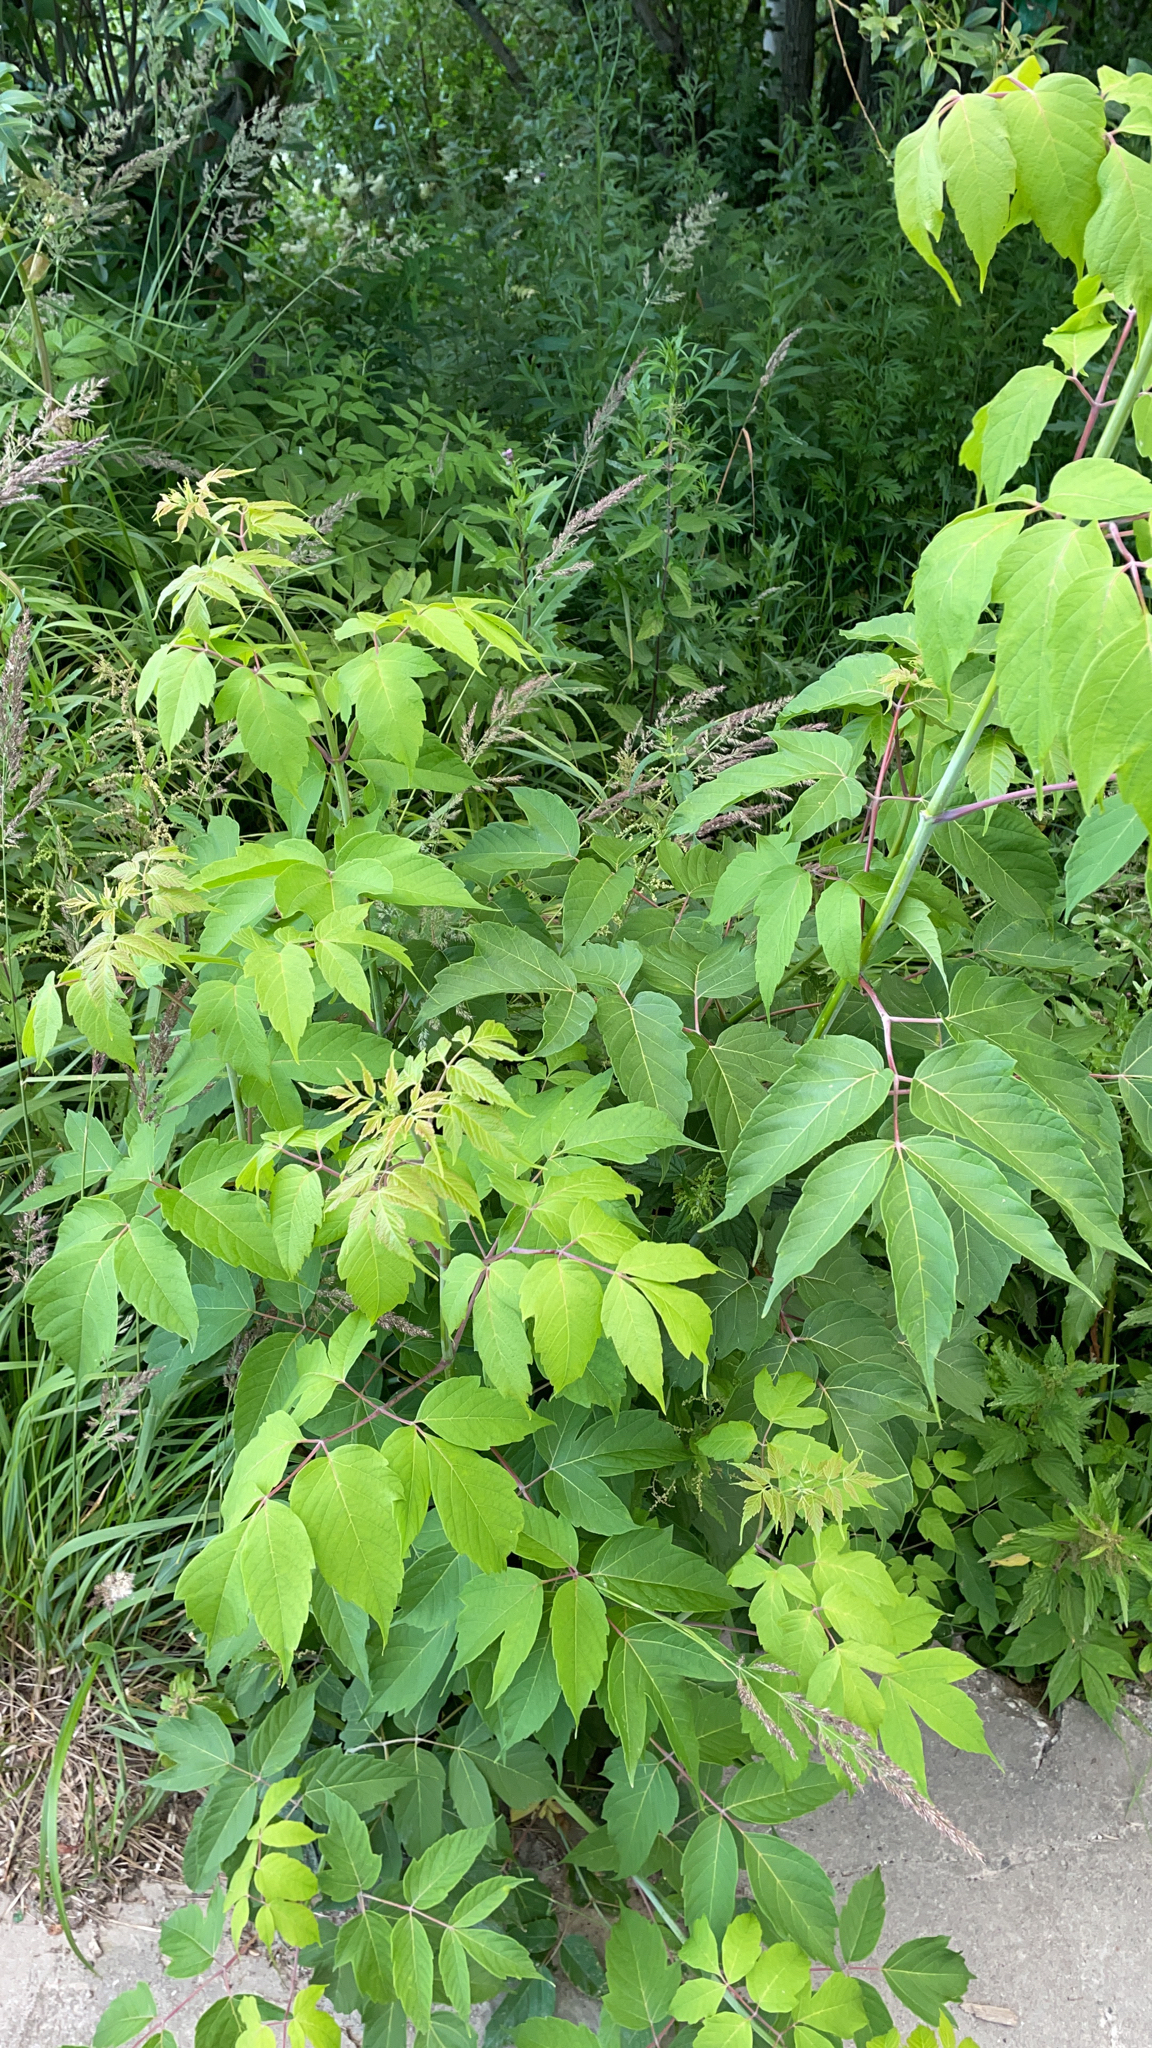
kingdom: Plantae
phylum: Tracheophyta
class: Magnoliopsida
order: Sapindales
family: Sapindaceae
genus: Acer
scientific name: Acer negundo
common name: Ashleaf maple
